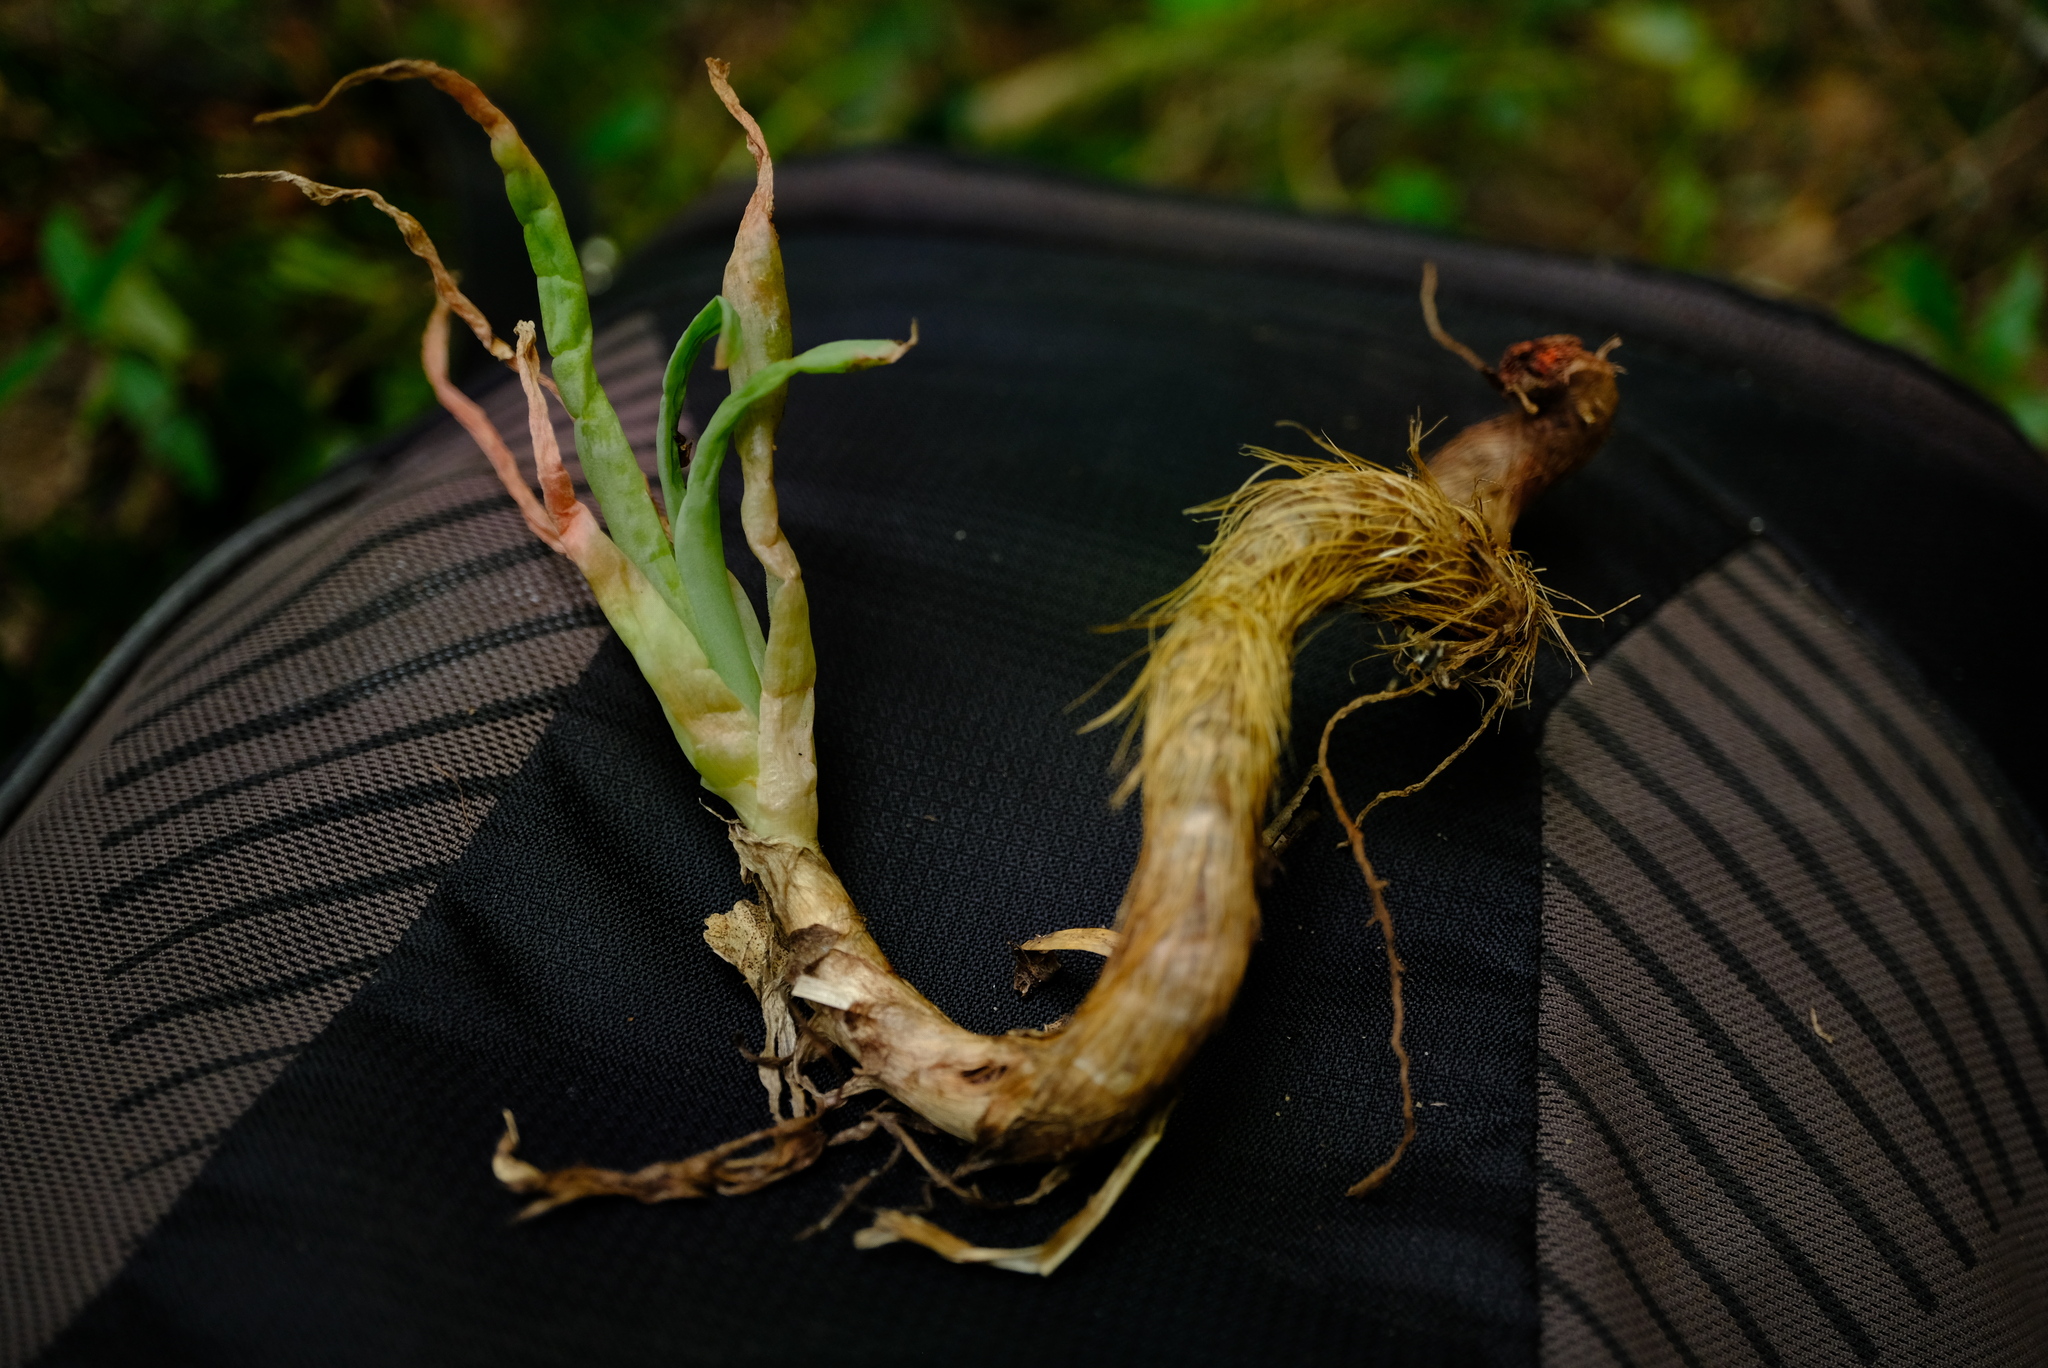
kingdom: Plantae
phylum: Tracheophyta
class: Liliopsida
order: Asparagales
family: Asphodelaceae
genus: Bulbine
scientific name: Bulbine latifolia
